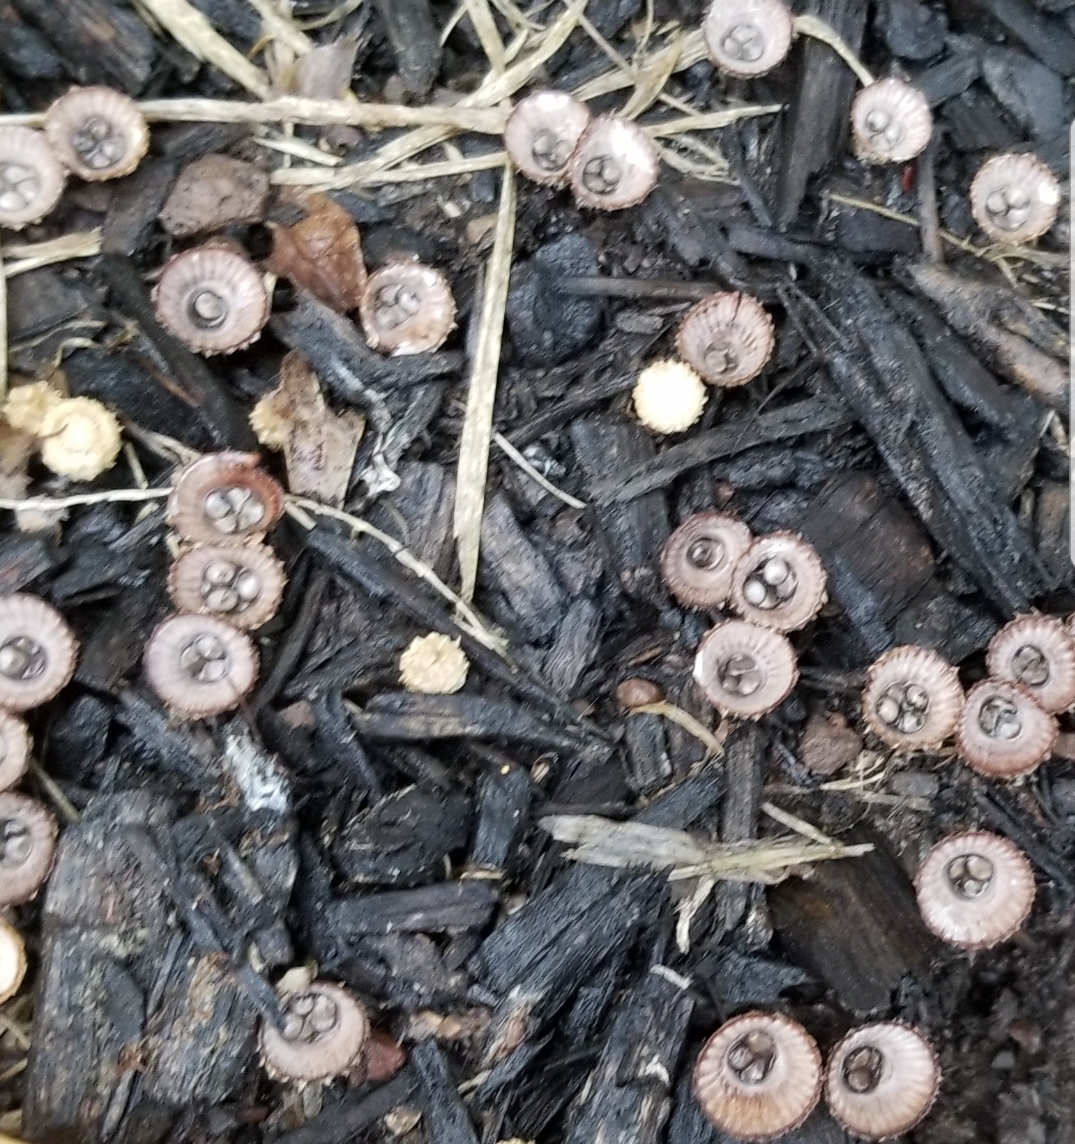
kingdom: Fungi
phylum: Basidiomycota
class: Agaricomycetes
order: Agaricales
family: Agaricaceae
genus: Cyathus
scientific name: Cyathus striatus
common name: Fluted bird's nest
